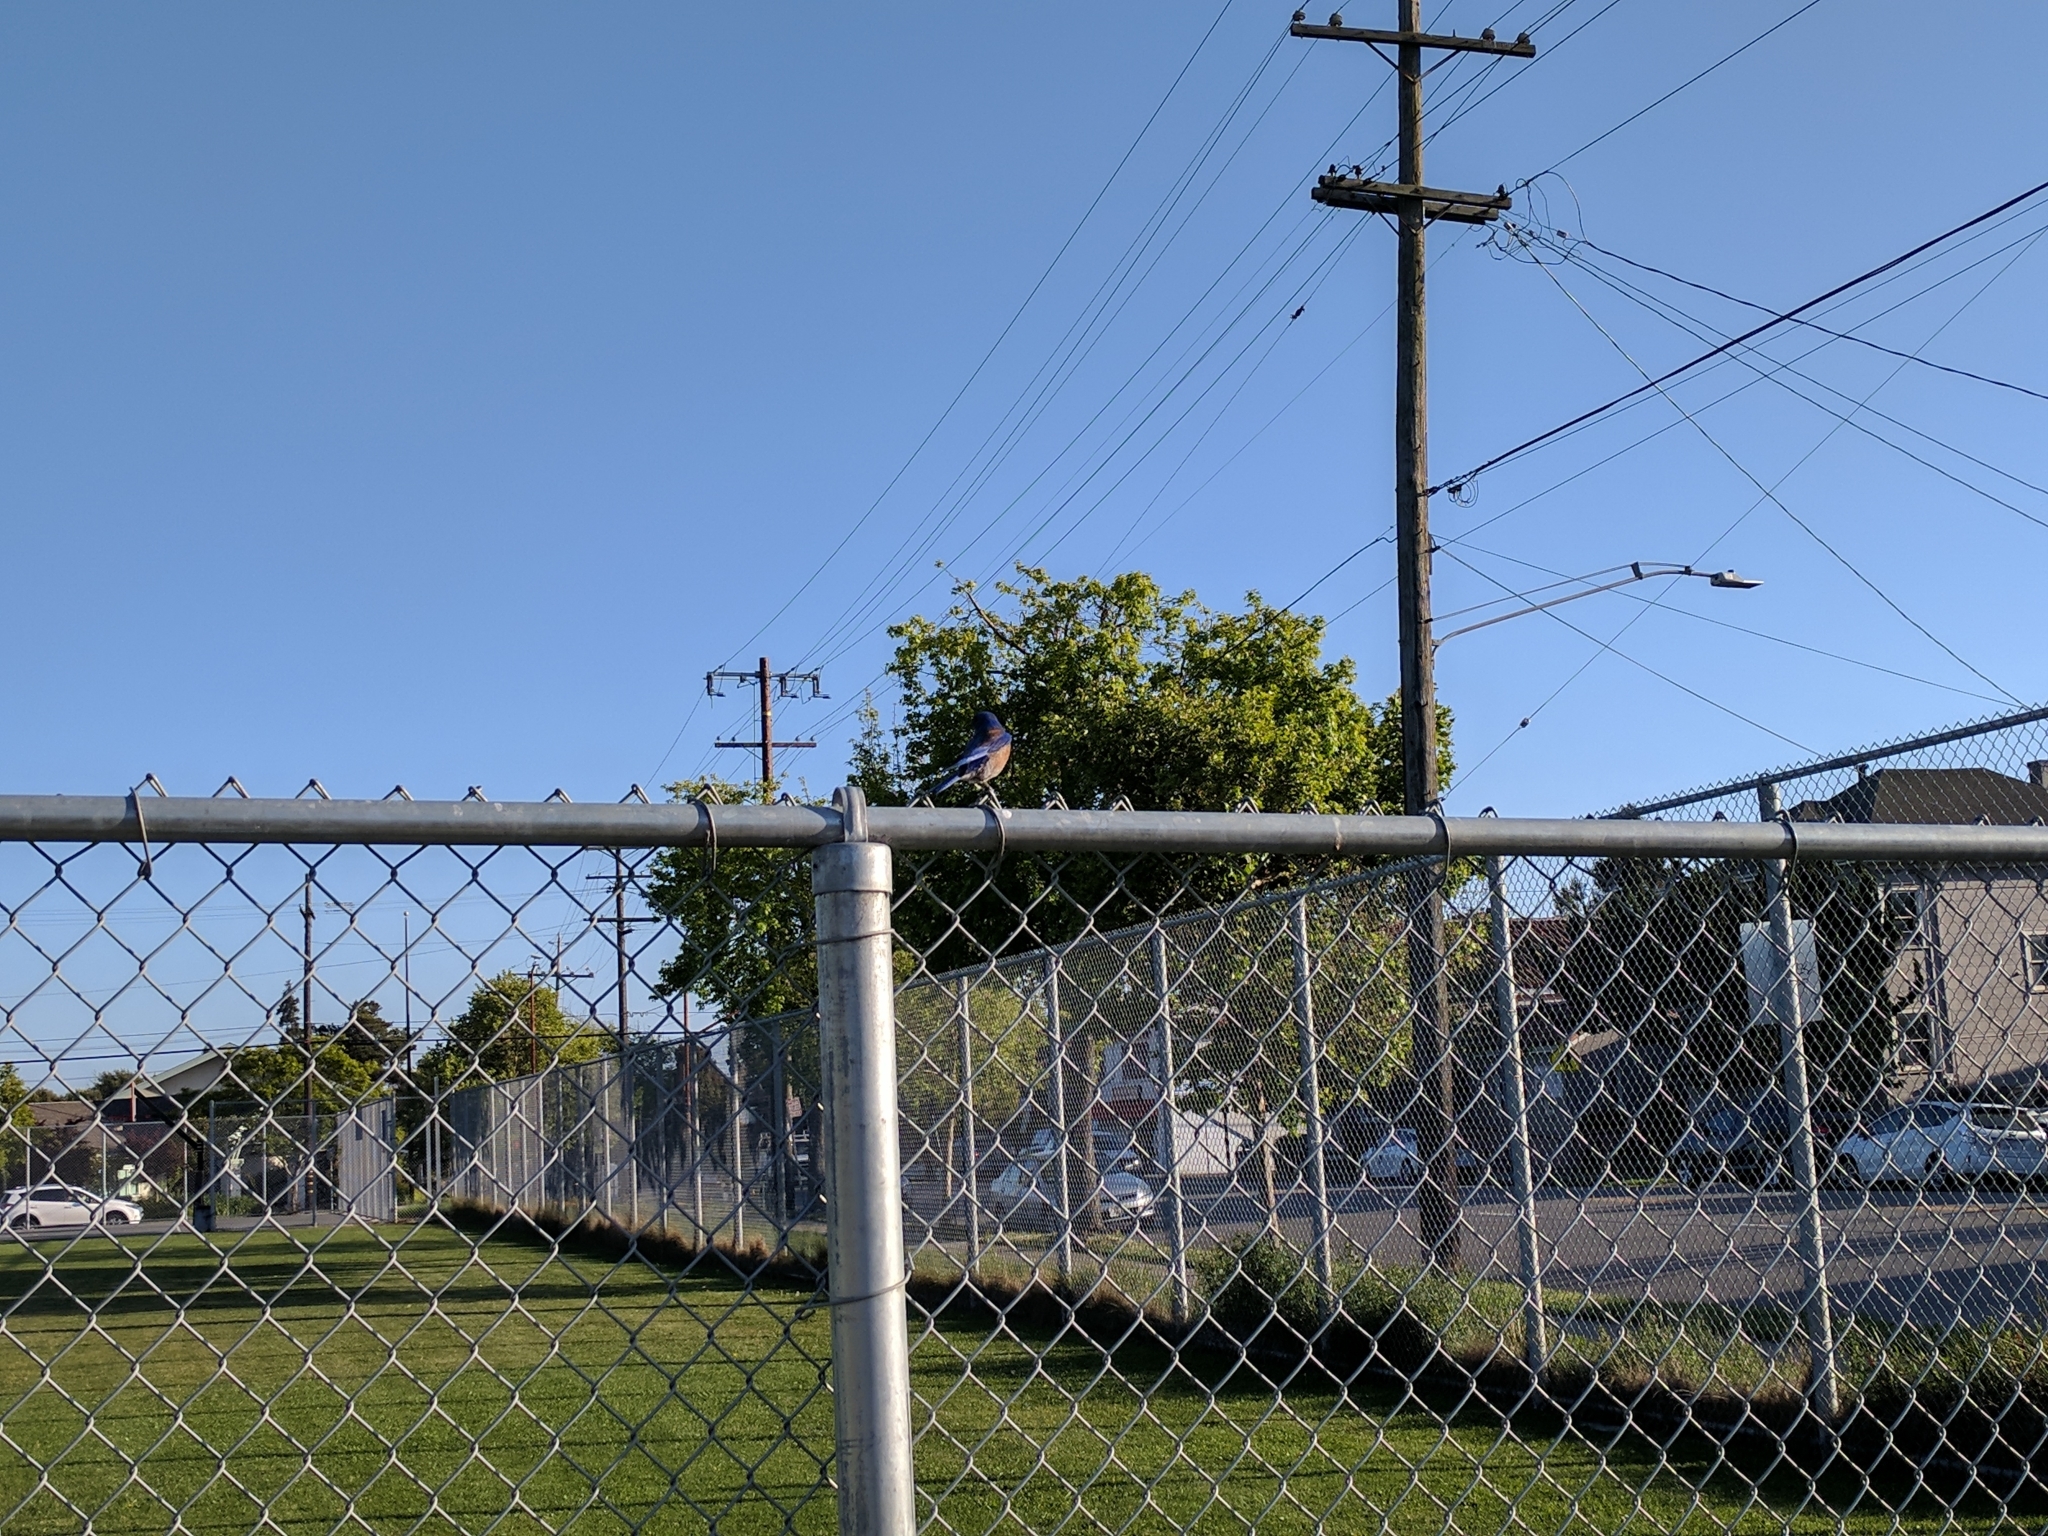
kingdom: Animalia
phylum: Chordata
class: Aves
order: Passeriformes
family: Turdidae
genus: Sialia
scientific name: Sialia mexicana
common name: Western bluebird
